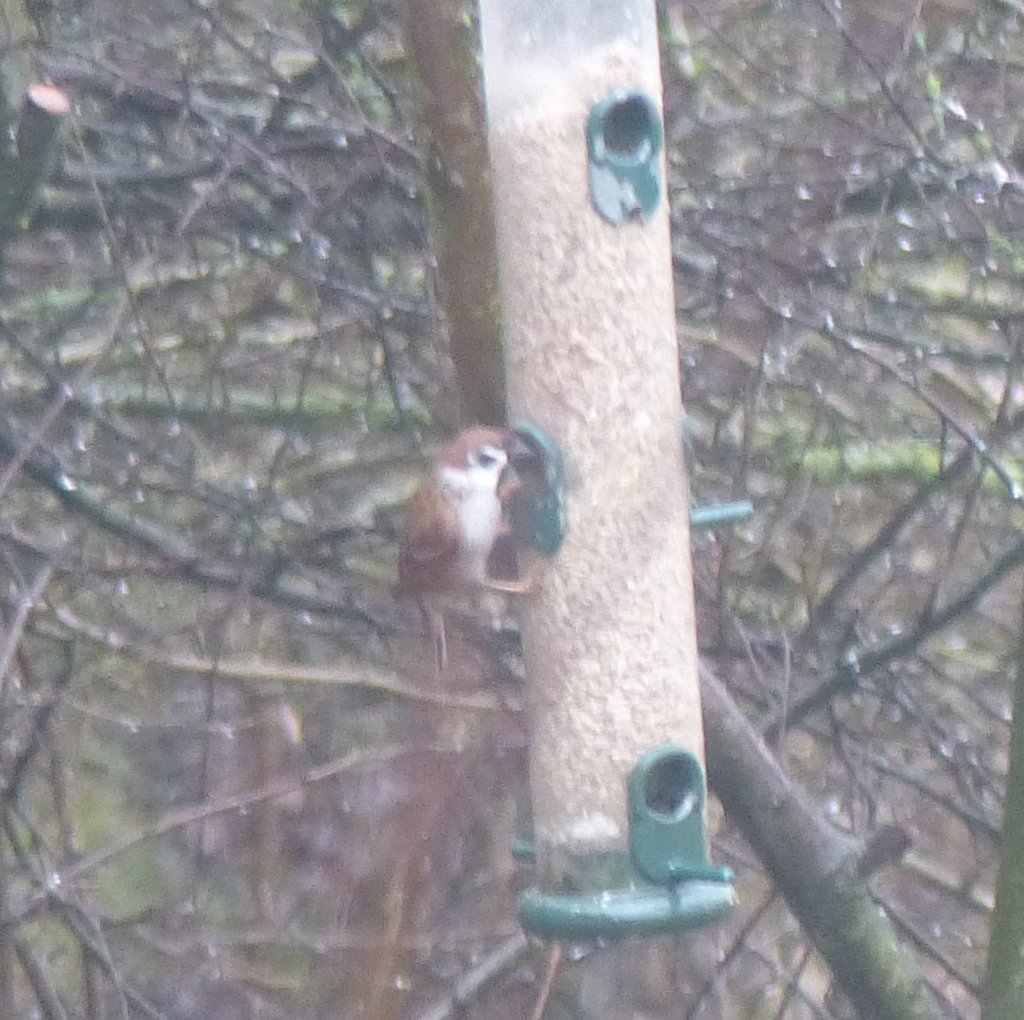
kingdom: Animalia
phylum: Chordata
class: Aves
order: Passeriformes
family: Passeridae
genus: Passer
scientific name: Passer montanus
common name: Eurasian tree sparrow
